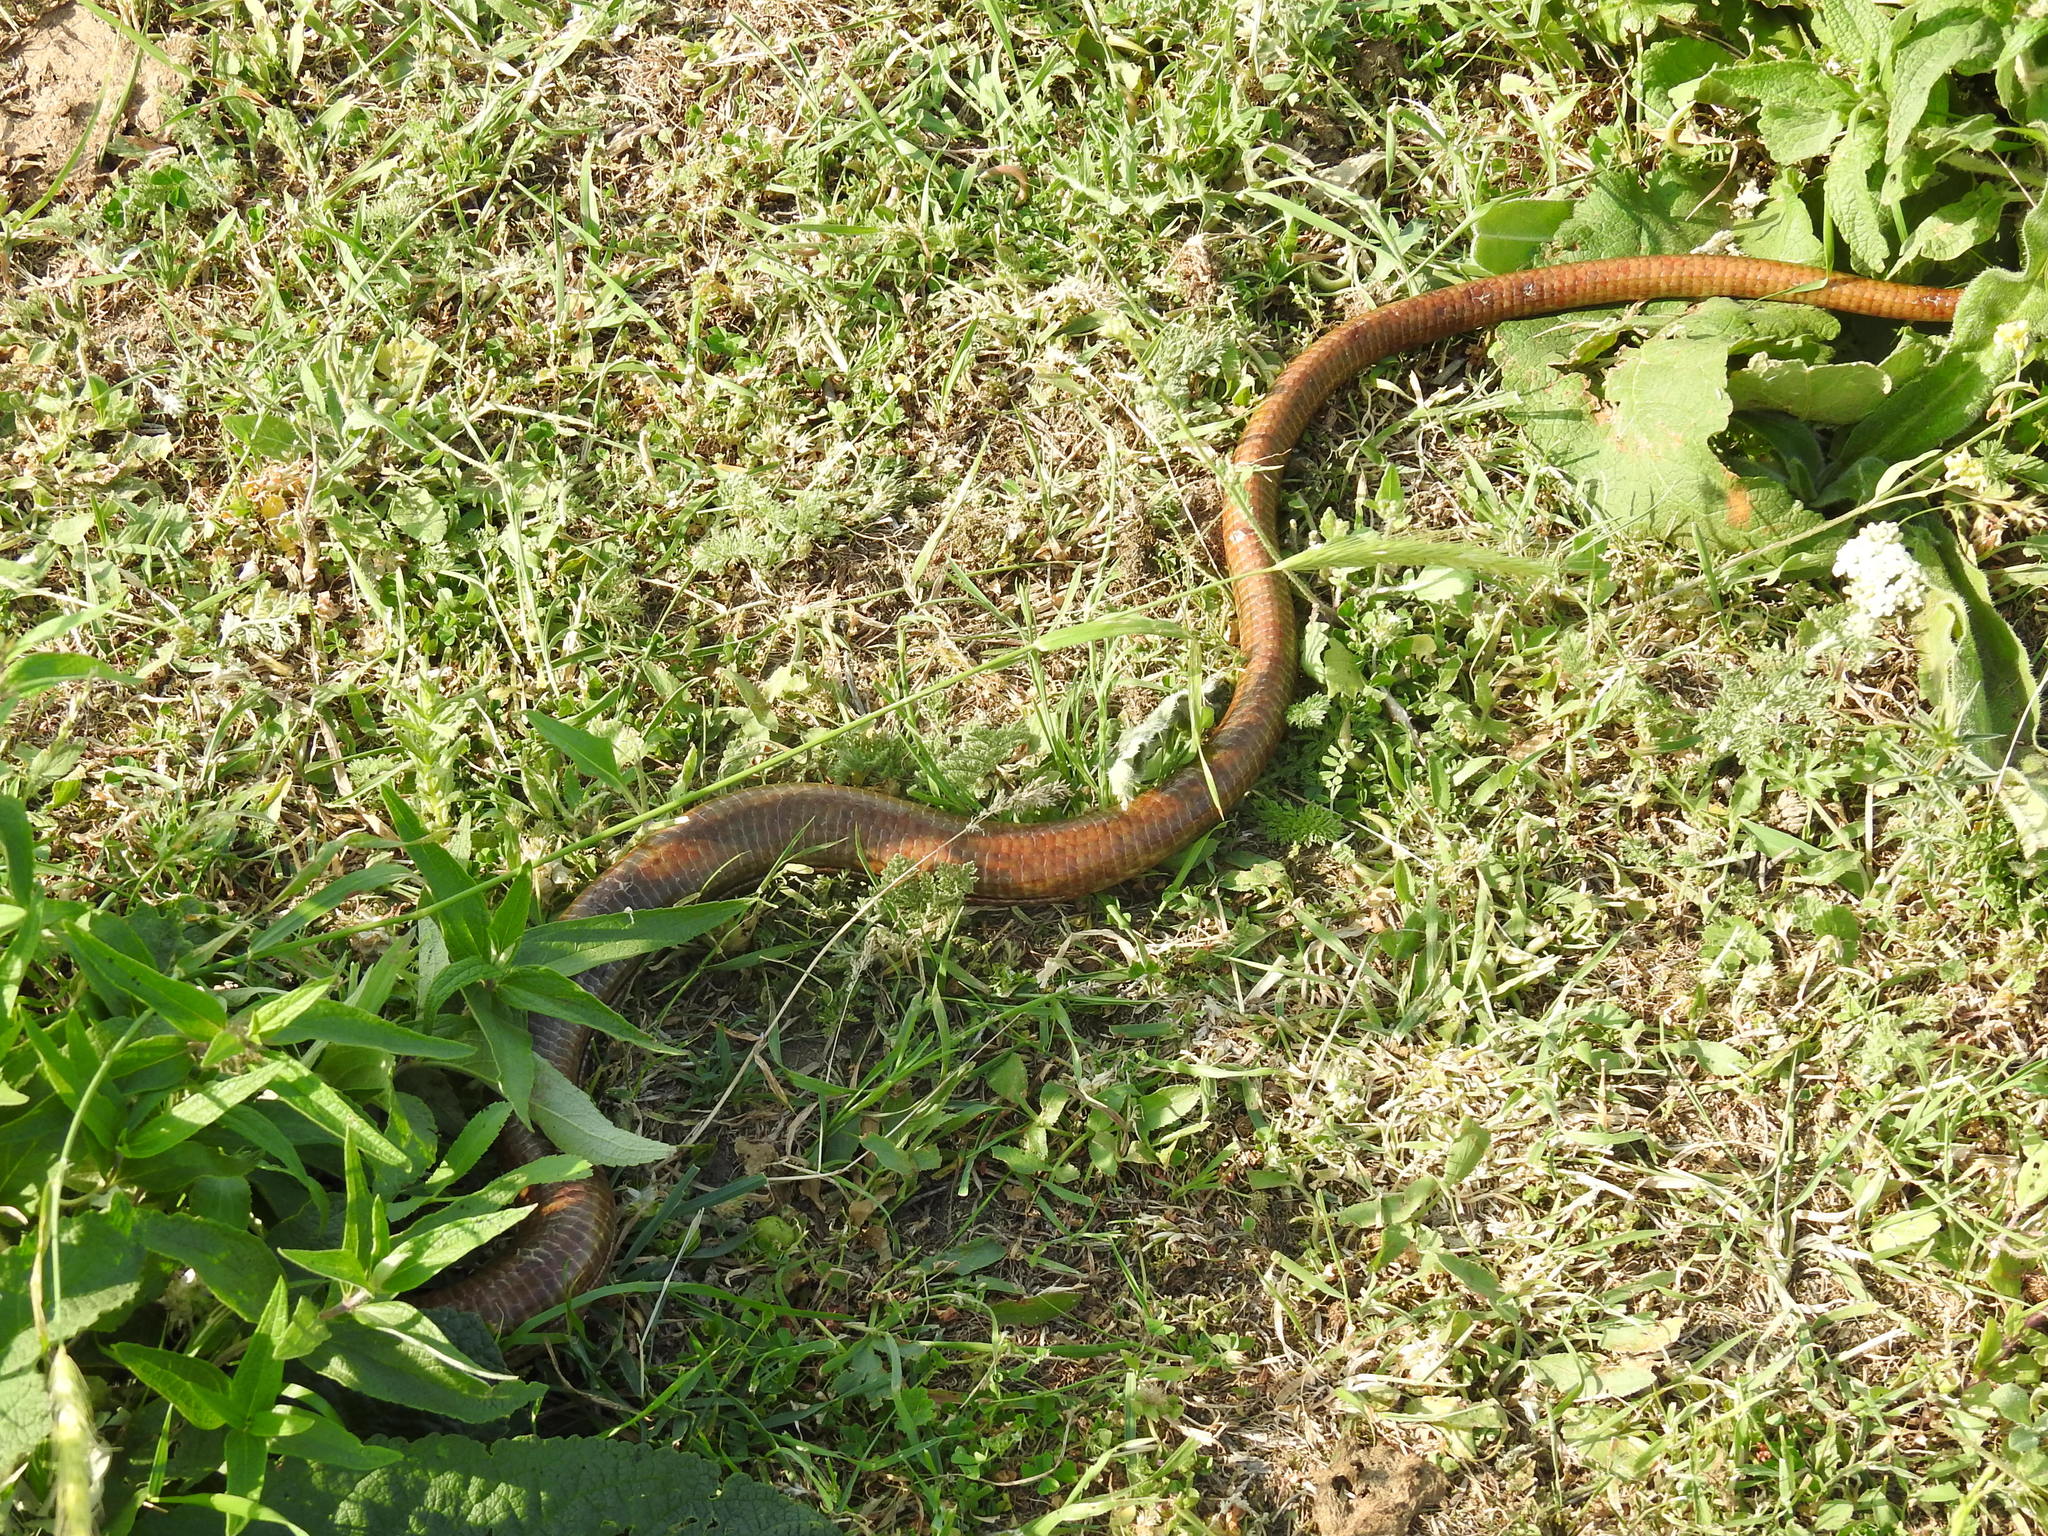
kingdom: Animalia
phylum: Chordata
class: Squamata
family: Anguidae
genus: Pseudopus
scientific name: Pseudopus apodus
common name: European glass lizard
